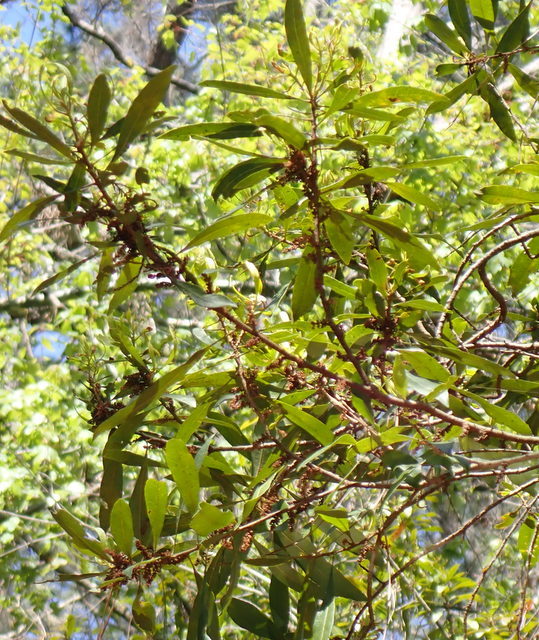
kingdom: Plantae
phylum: Tracheophyta
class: Magnoliopsida
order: Fagales
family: Myricaceae
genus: Morella
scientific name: Morella cerifera
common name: Wax myrtle
